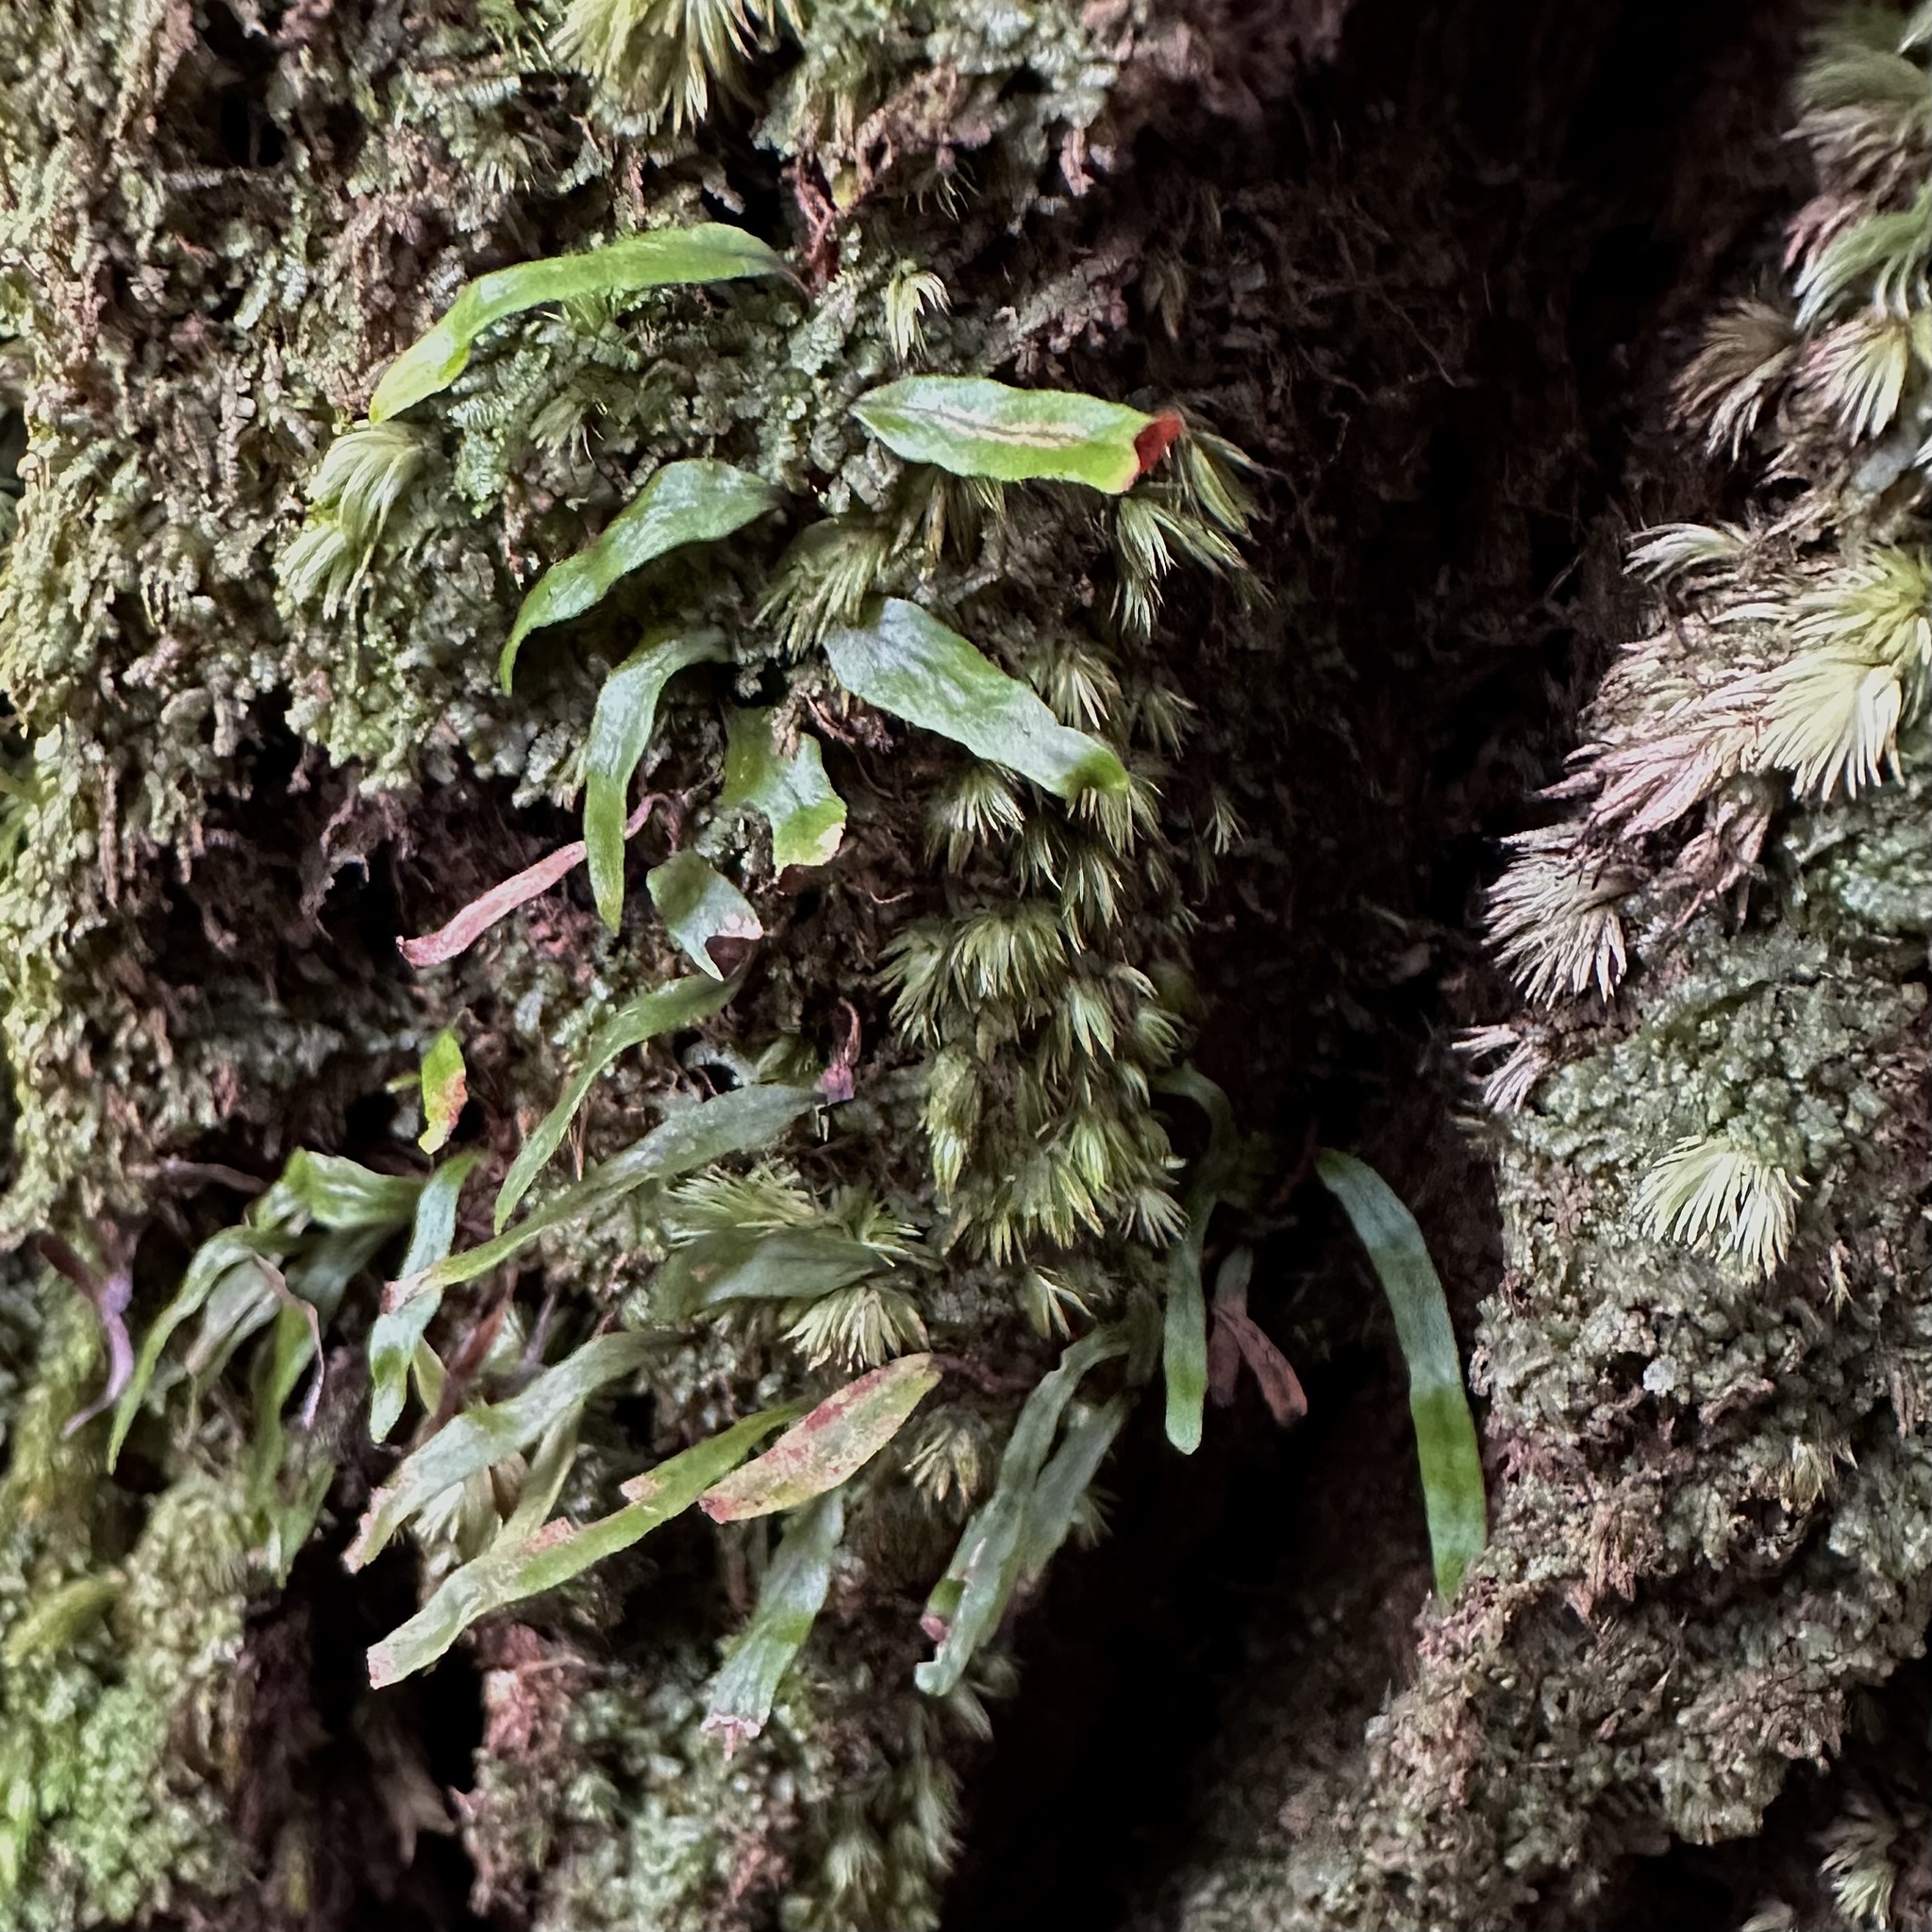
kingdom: Plantae
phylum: Tracheophyta
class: Polypodiopsida
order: Polypodiales
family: Polypodiaceae
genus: Adenophorus
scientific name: Adenophorus tenellus
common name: Kolokolo
